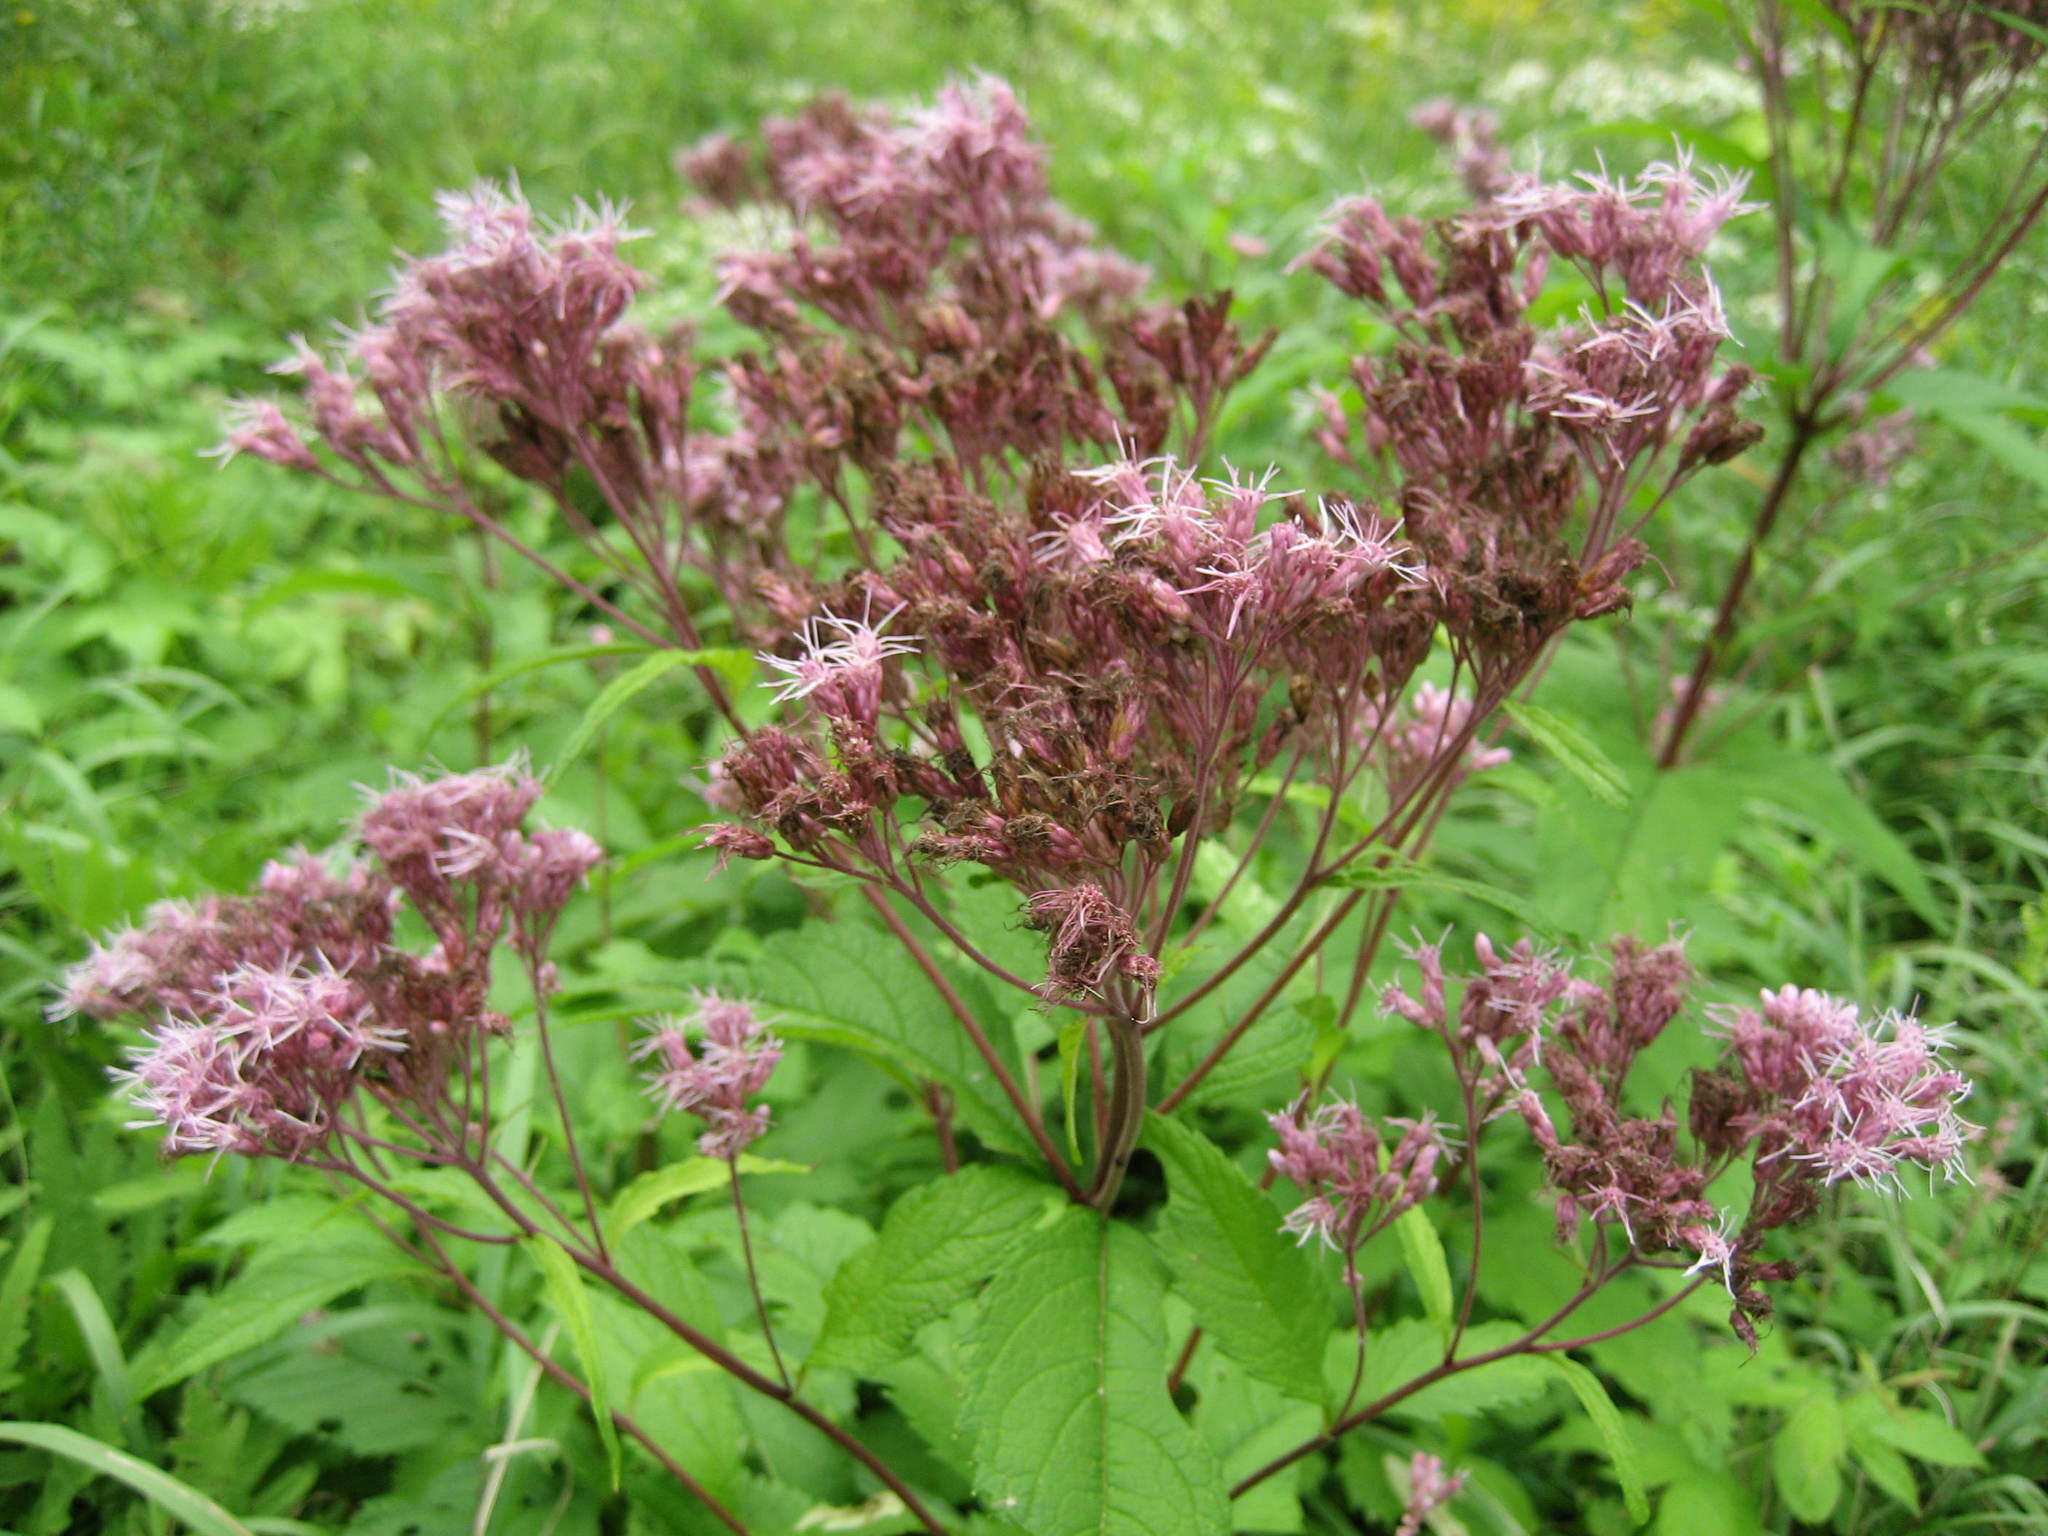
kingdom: Plantae
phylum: Tracheophyta
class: Magnoliopsida
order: Asterales
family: Asteraceae
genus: Eutrochium
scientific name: Eutrochium maculatum
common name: Spotted joe pye weed
